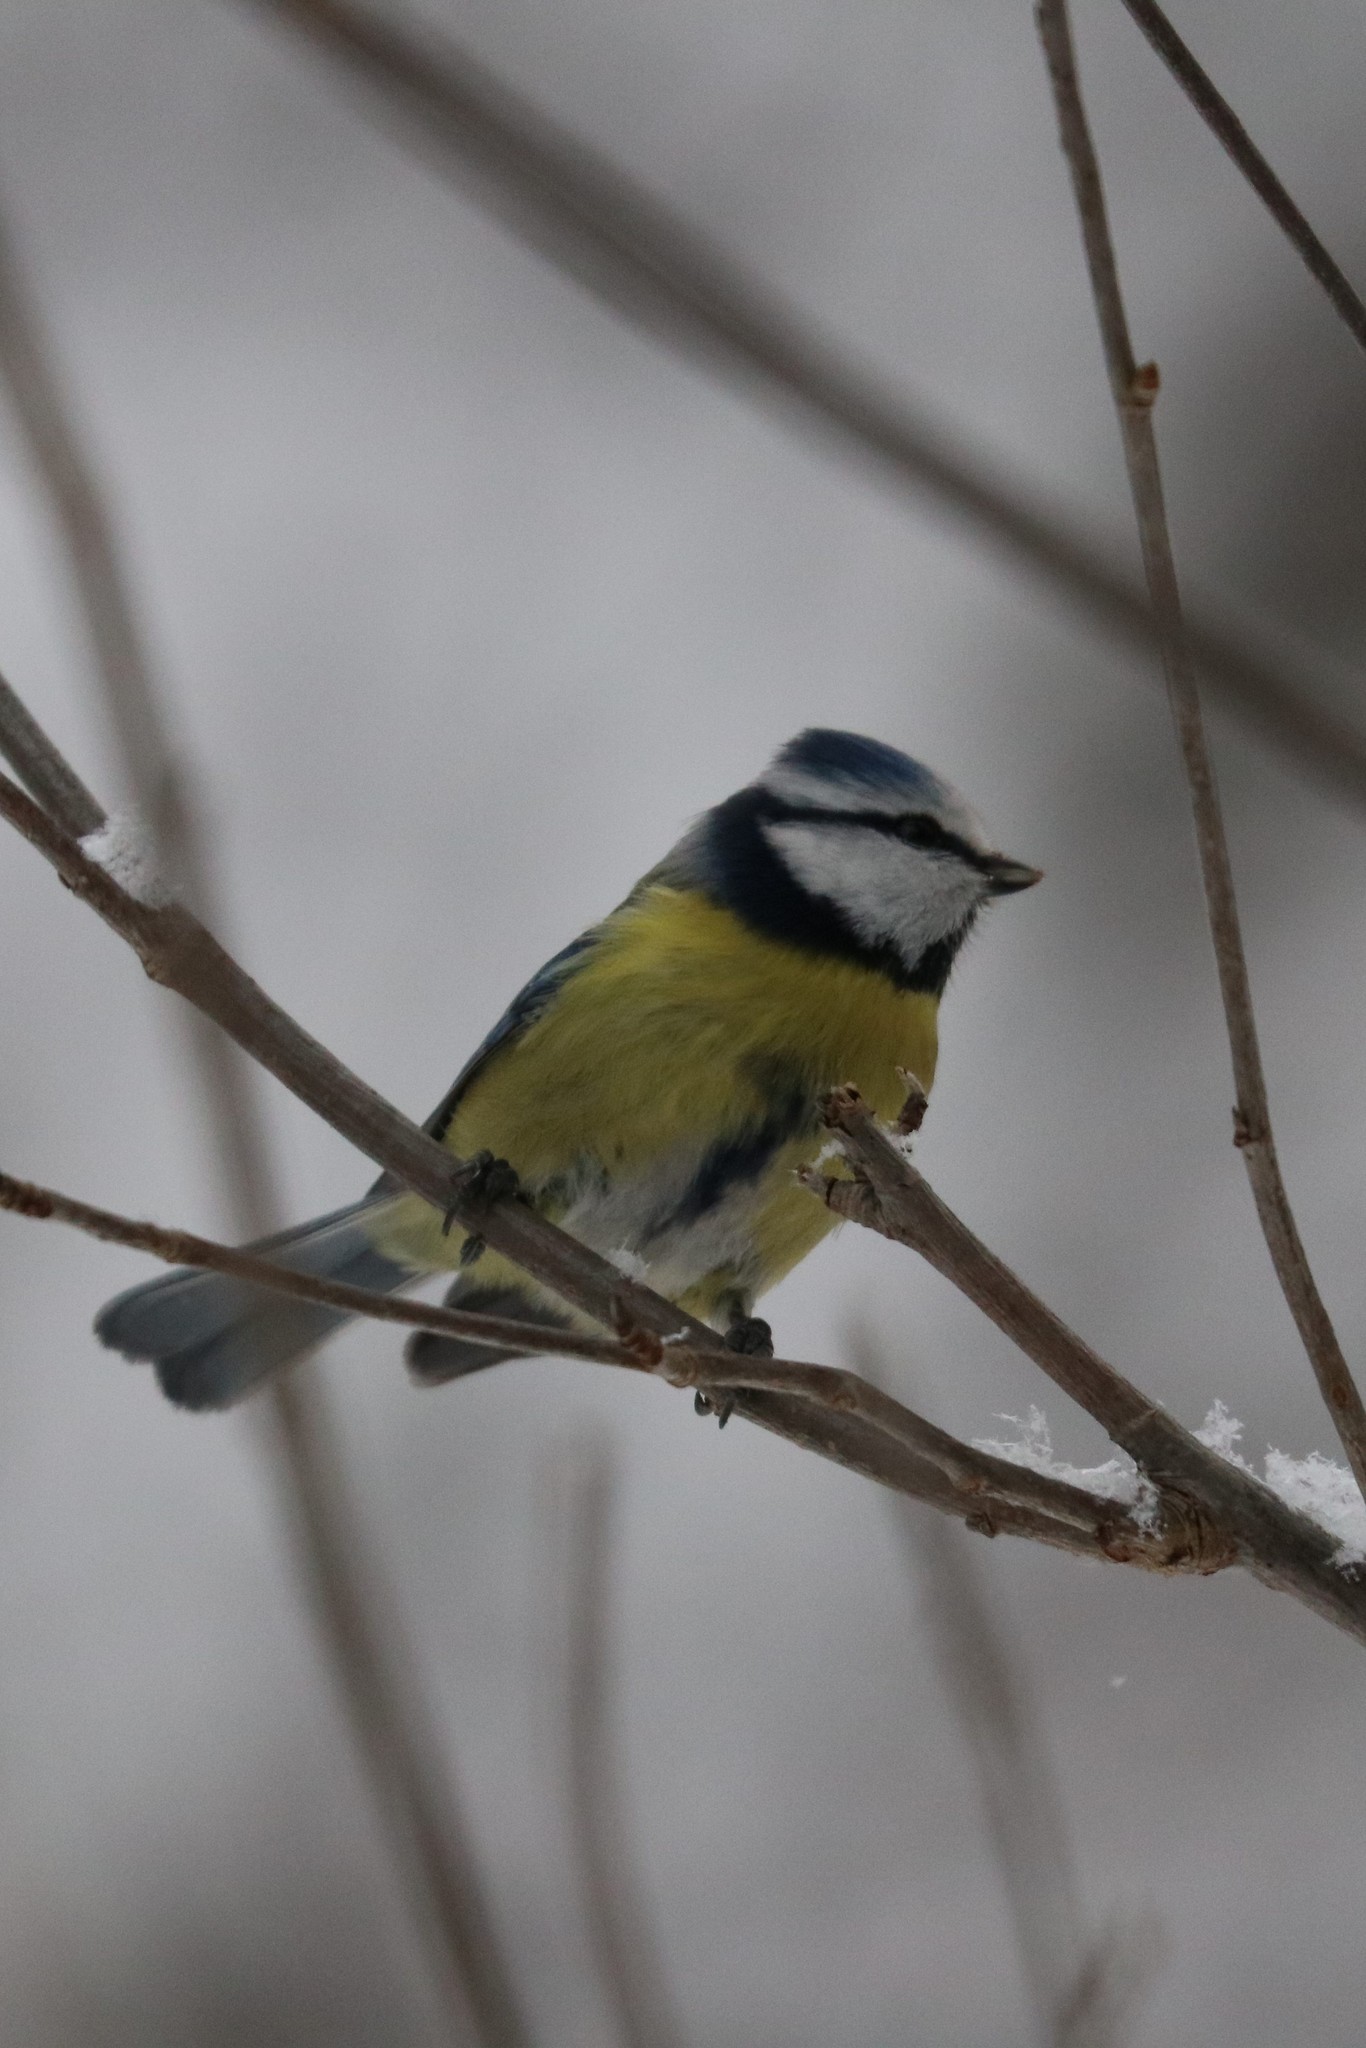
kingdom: Animalia
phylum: Chordata
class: Aves
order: Passeriformes
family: Paridae
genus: Cyanistes
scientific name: Cyanistes caeruleus
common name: Eurasian blue tit
